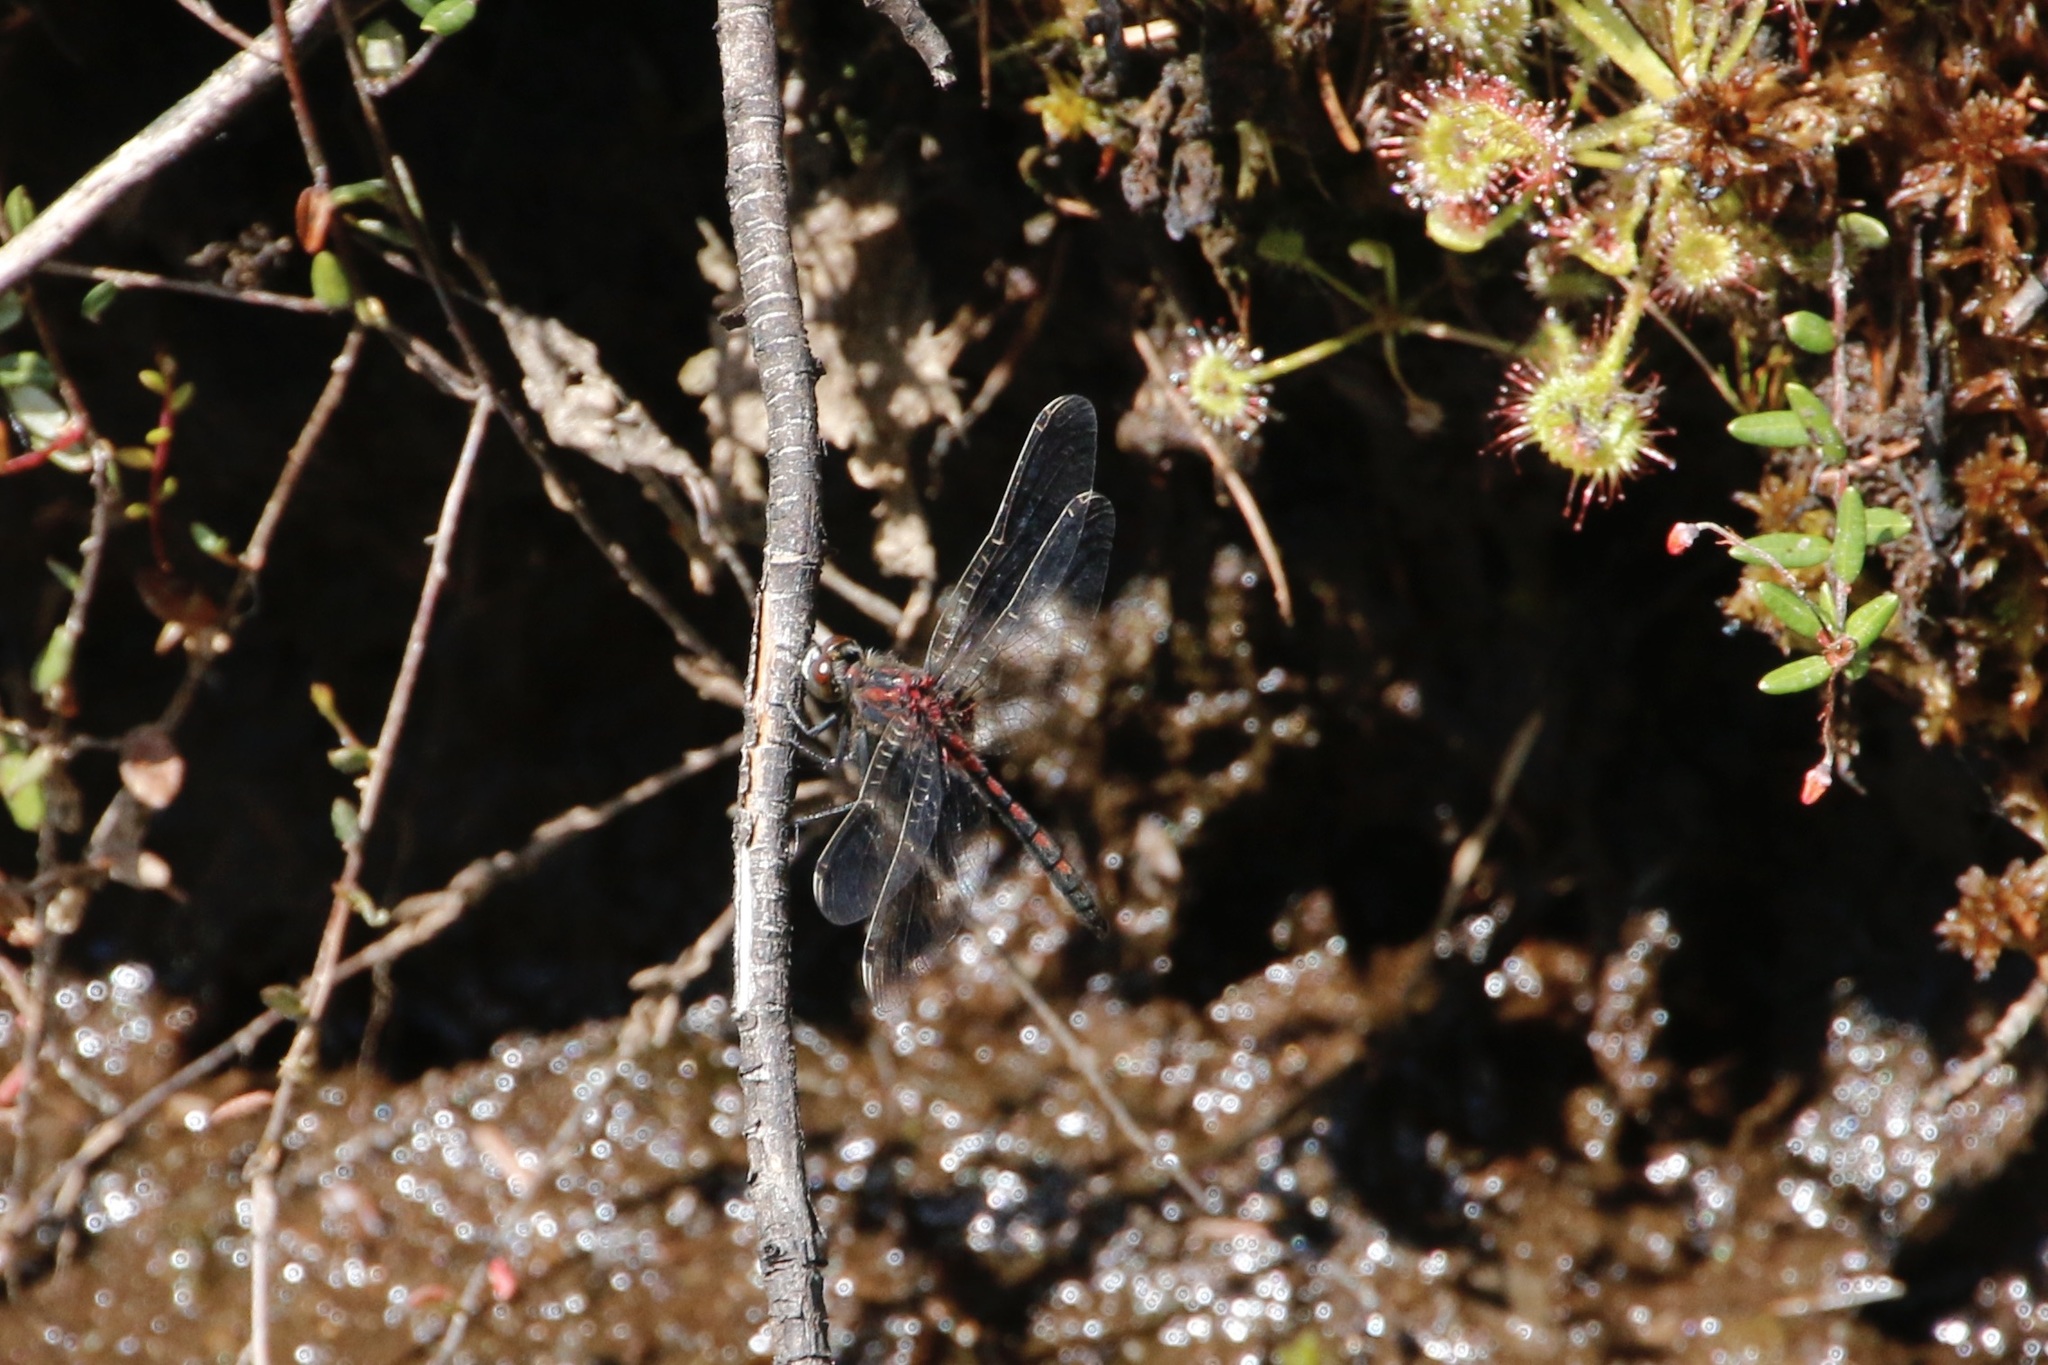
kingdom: Animalia
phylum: Arthropoda
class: Insecta
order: Odonata
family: Libellulidae
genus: Leucorrhinia
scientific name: Leucorrhinia hudsonica
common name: Hudsonian whiteface
